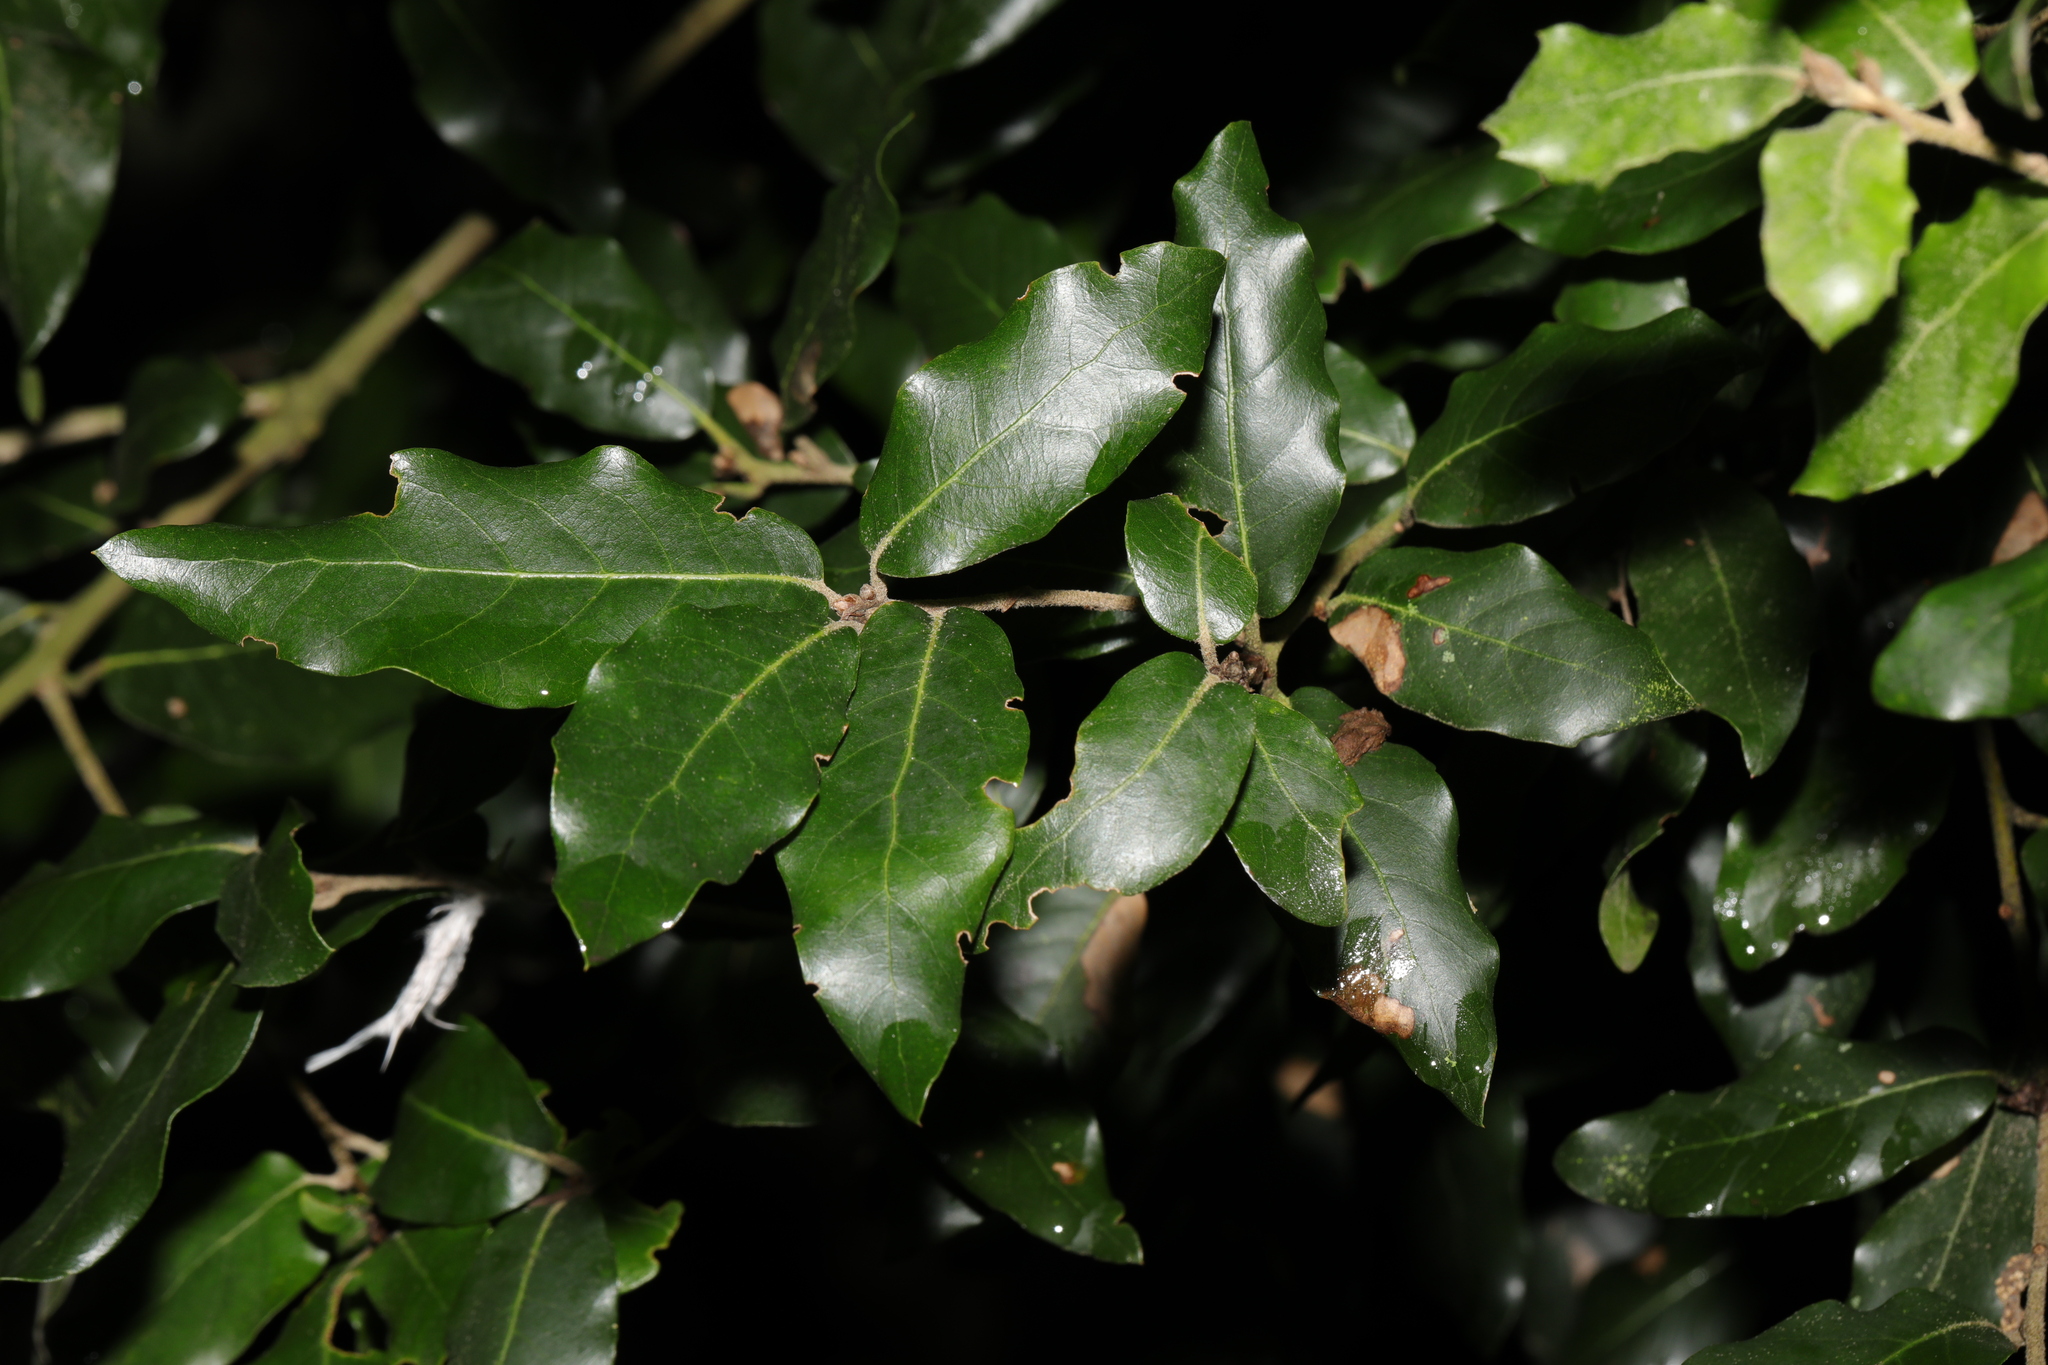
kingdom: Plantae
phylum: Tracheophyta
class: Magnoliopsida
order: Fagales
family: Fagaceae
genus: Quercus
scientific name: Quercus ilex
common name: Evergreen oak
